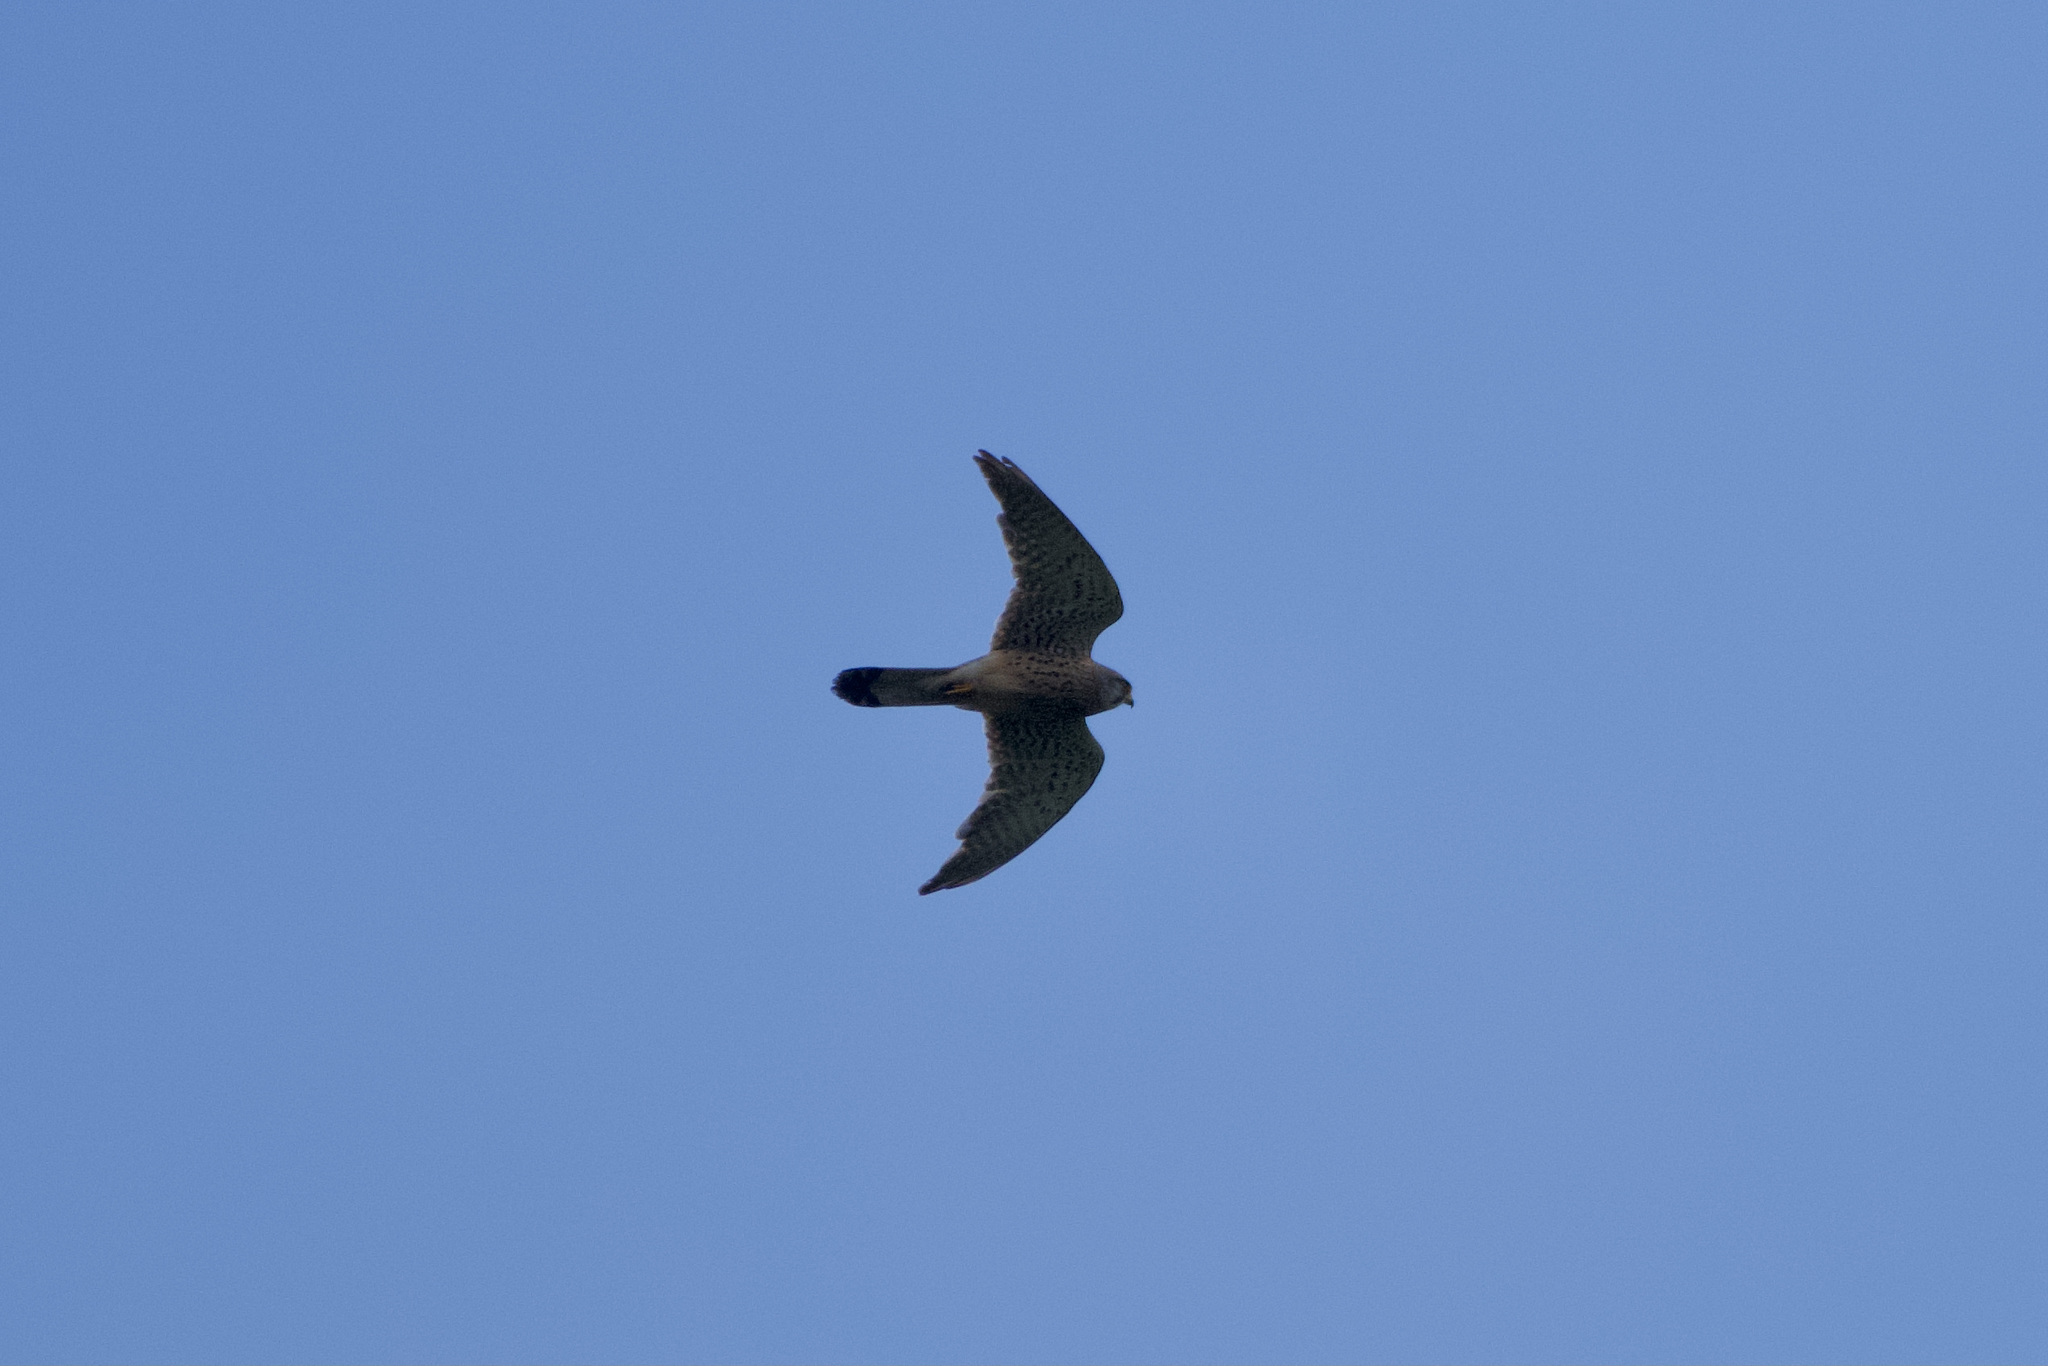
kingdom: Animalia
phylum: Chordata
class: Aves
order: Falconiformes
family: Falconidae
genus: Falco
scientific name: Falco tinnunculus
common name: Common kestrel
